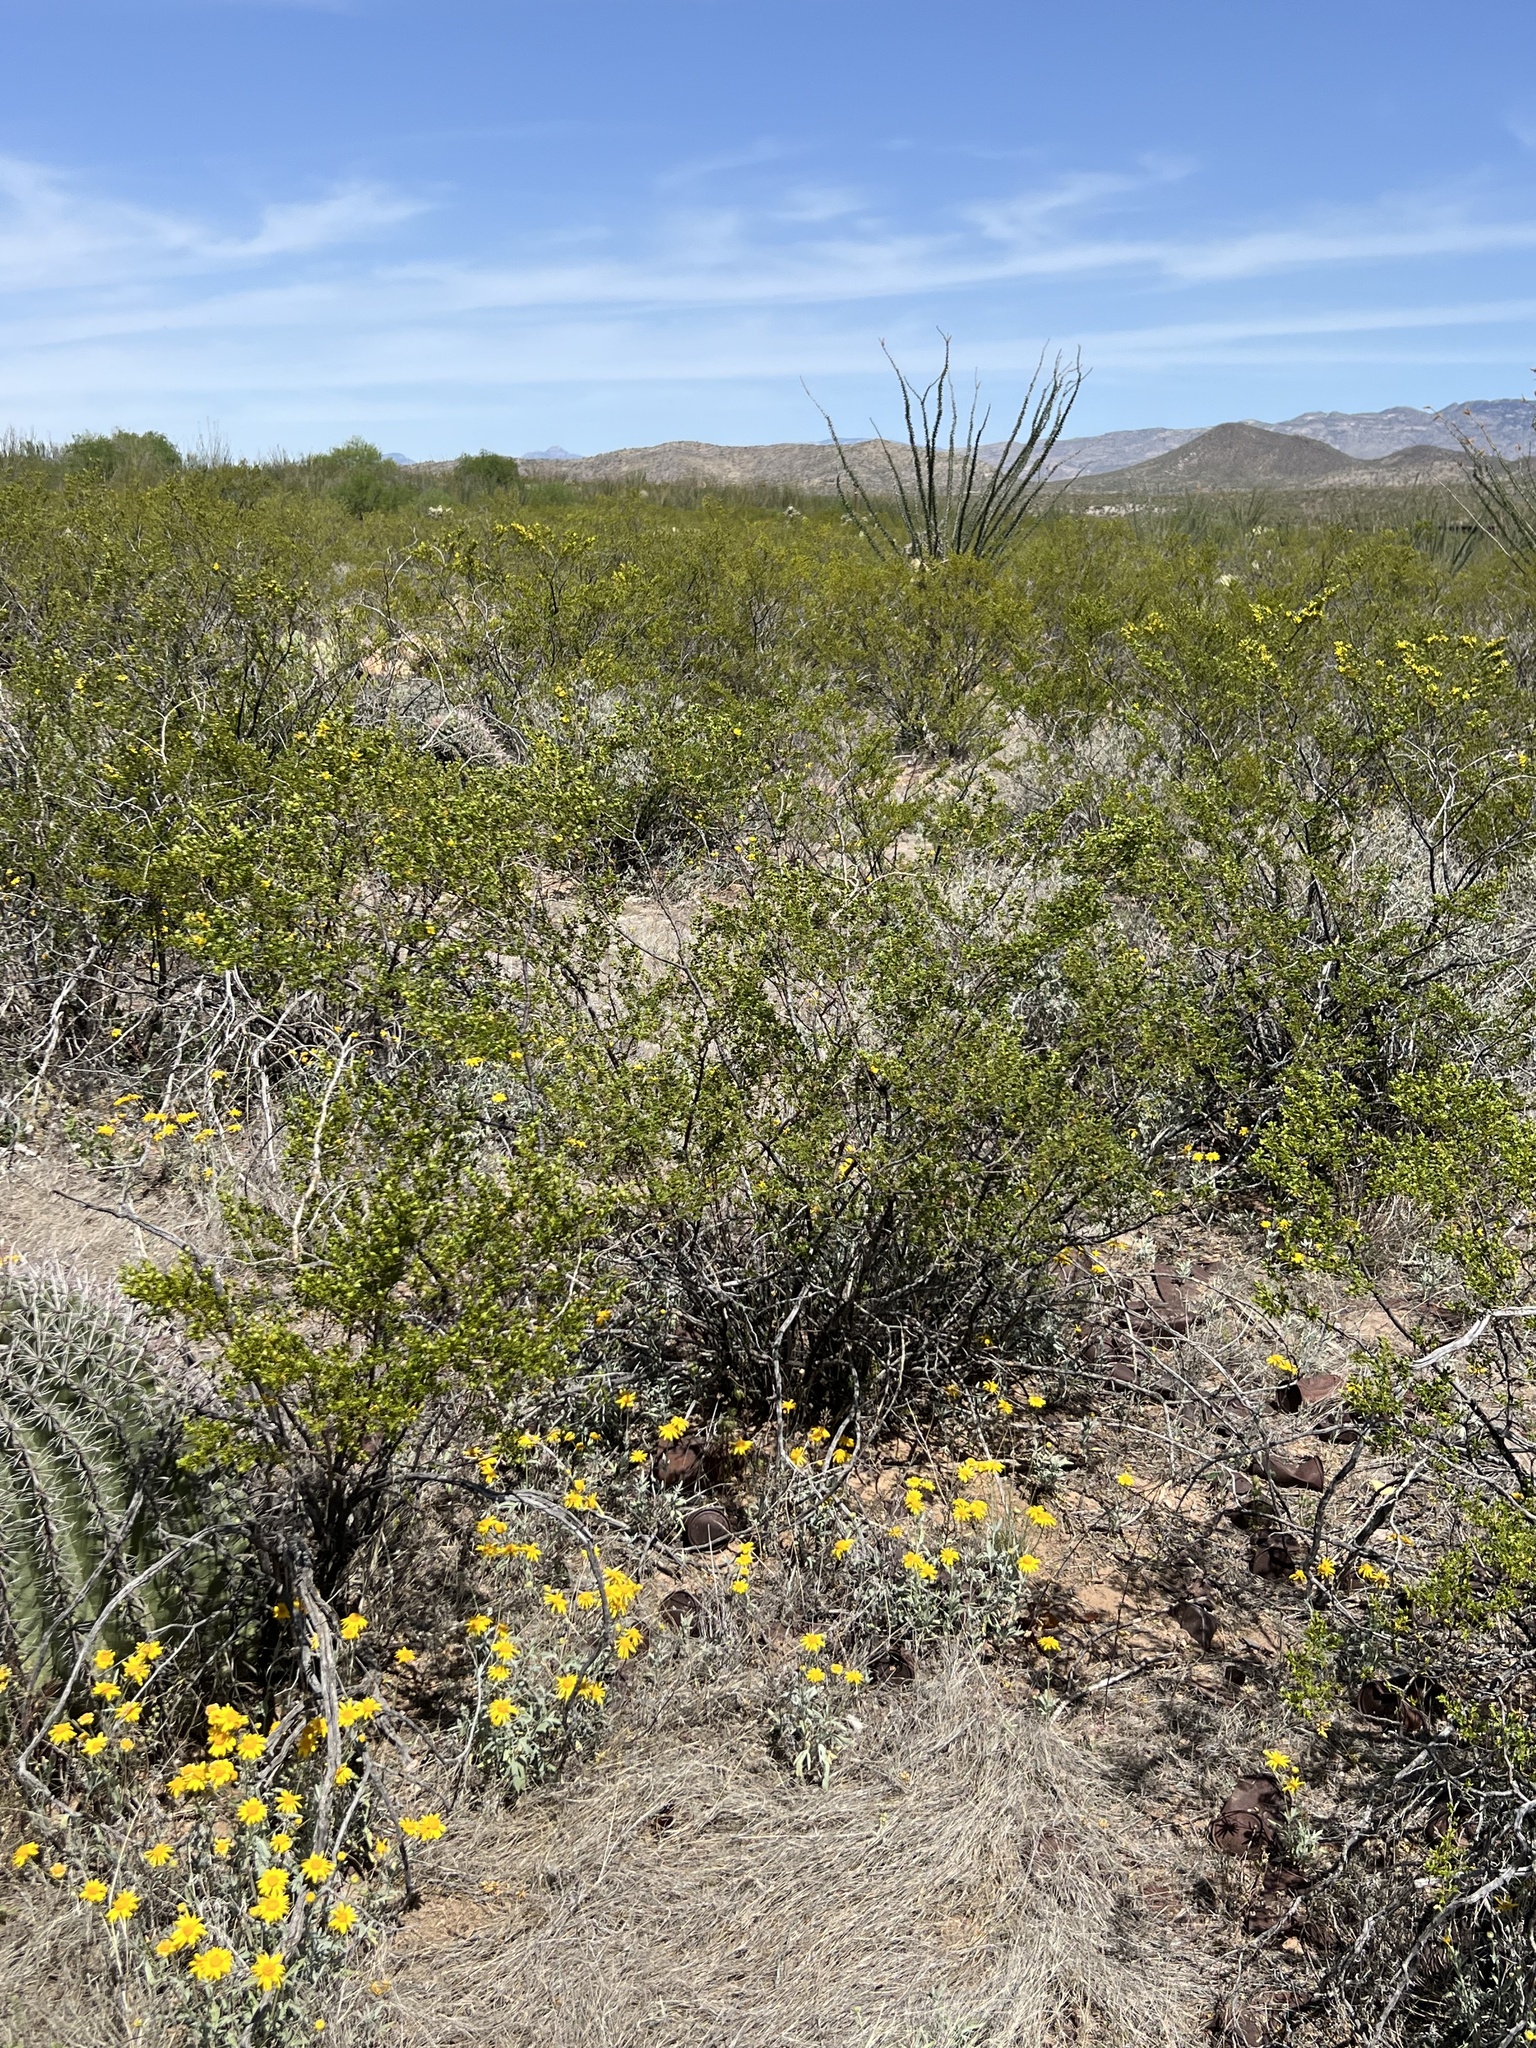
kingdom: Plantae
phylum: Tracheophyta
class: Magnoliopsida
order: Zygophyllales
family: Zygophyllaceae
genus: Larrea
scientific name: Larrea tridentata
